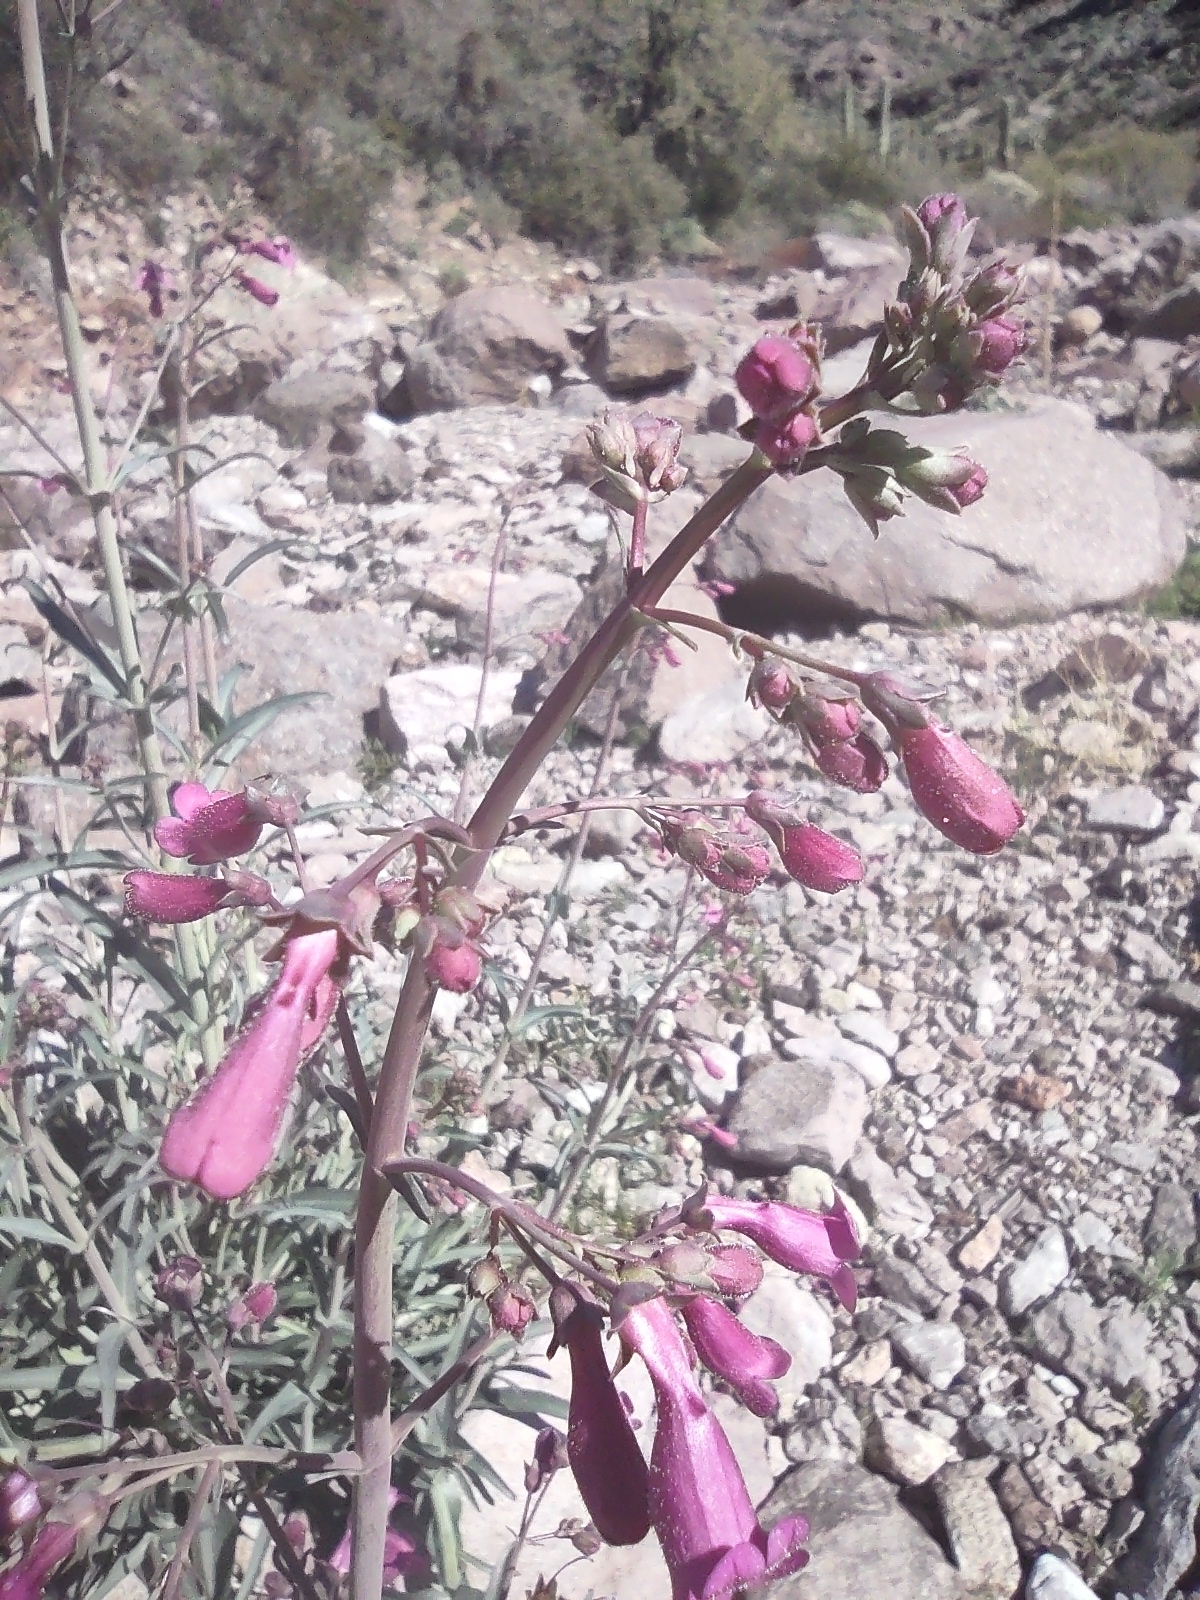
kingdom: Plantae
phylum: Tracheophyta
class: Magnoliopsida
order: Lamiales
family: Plantaginaceae
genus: Penstemon
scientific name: Penstemon parryi
